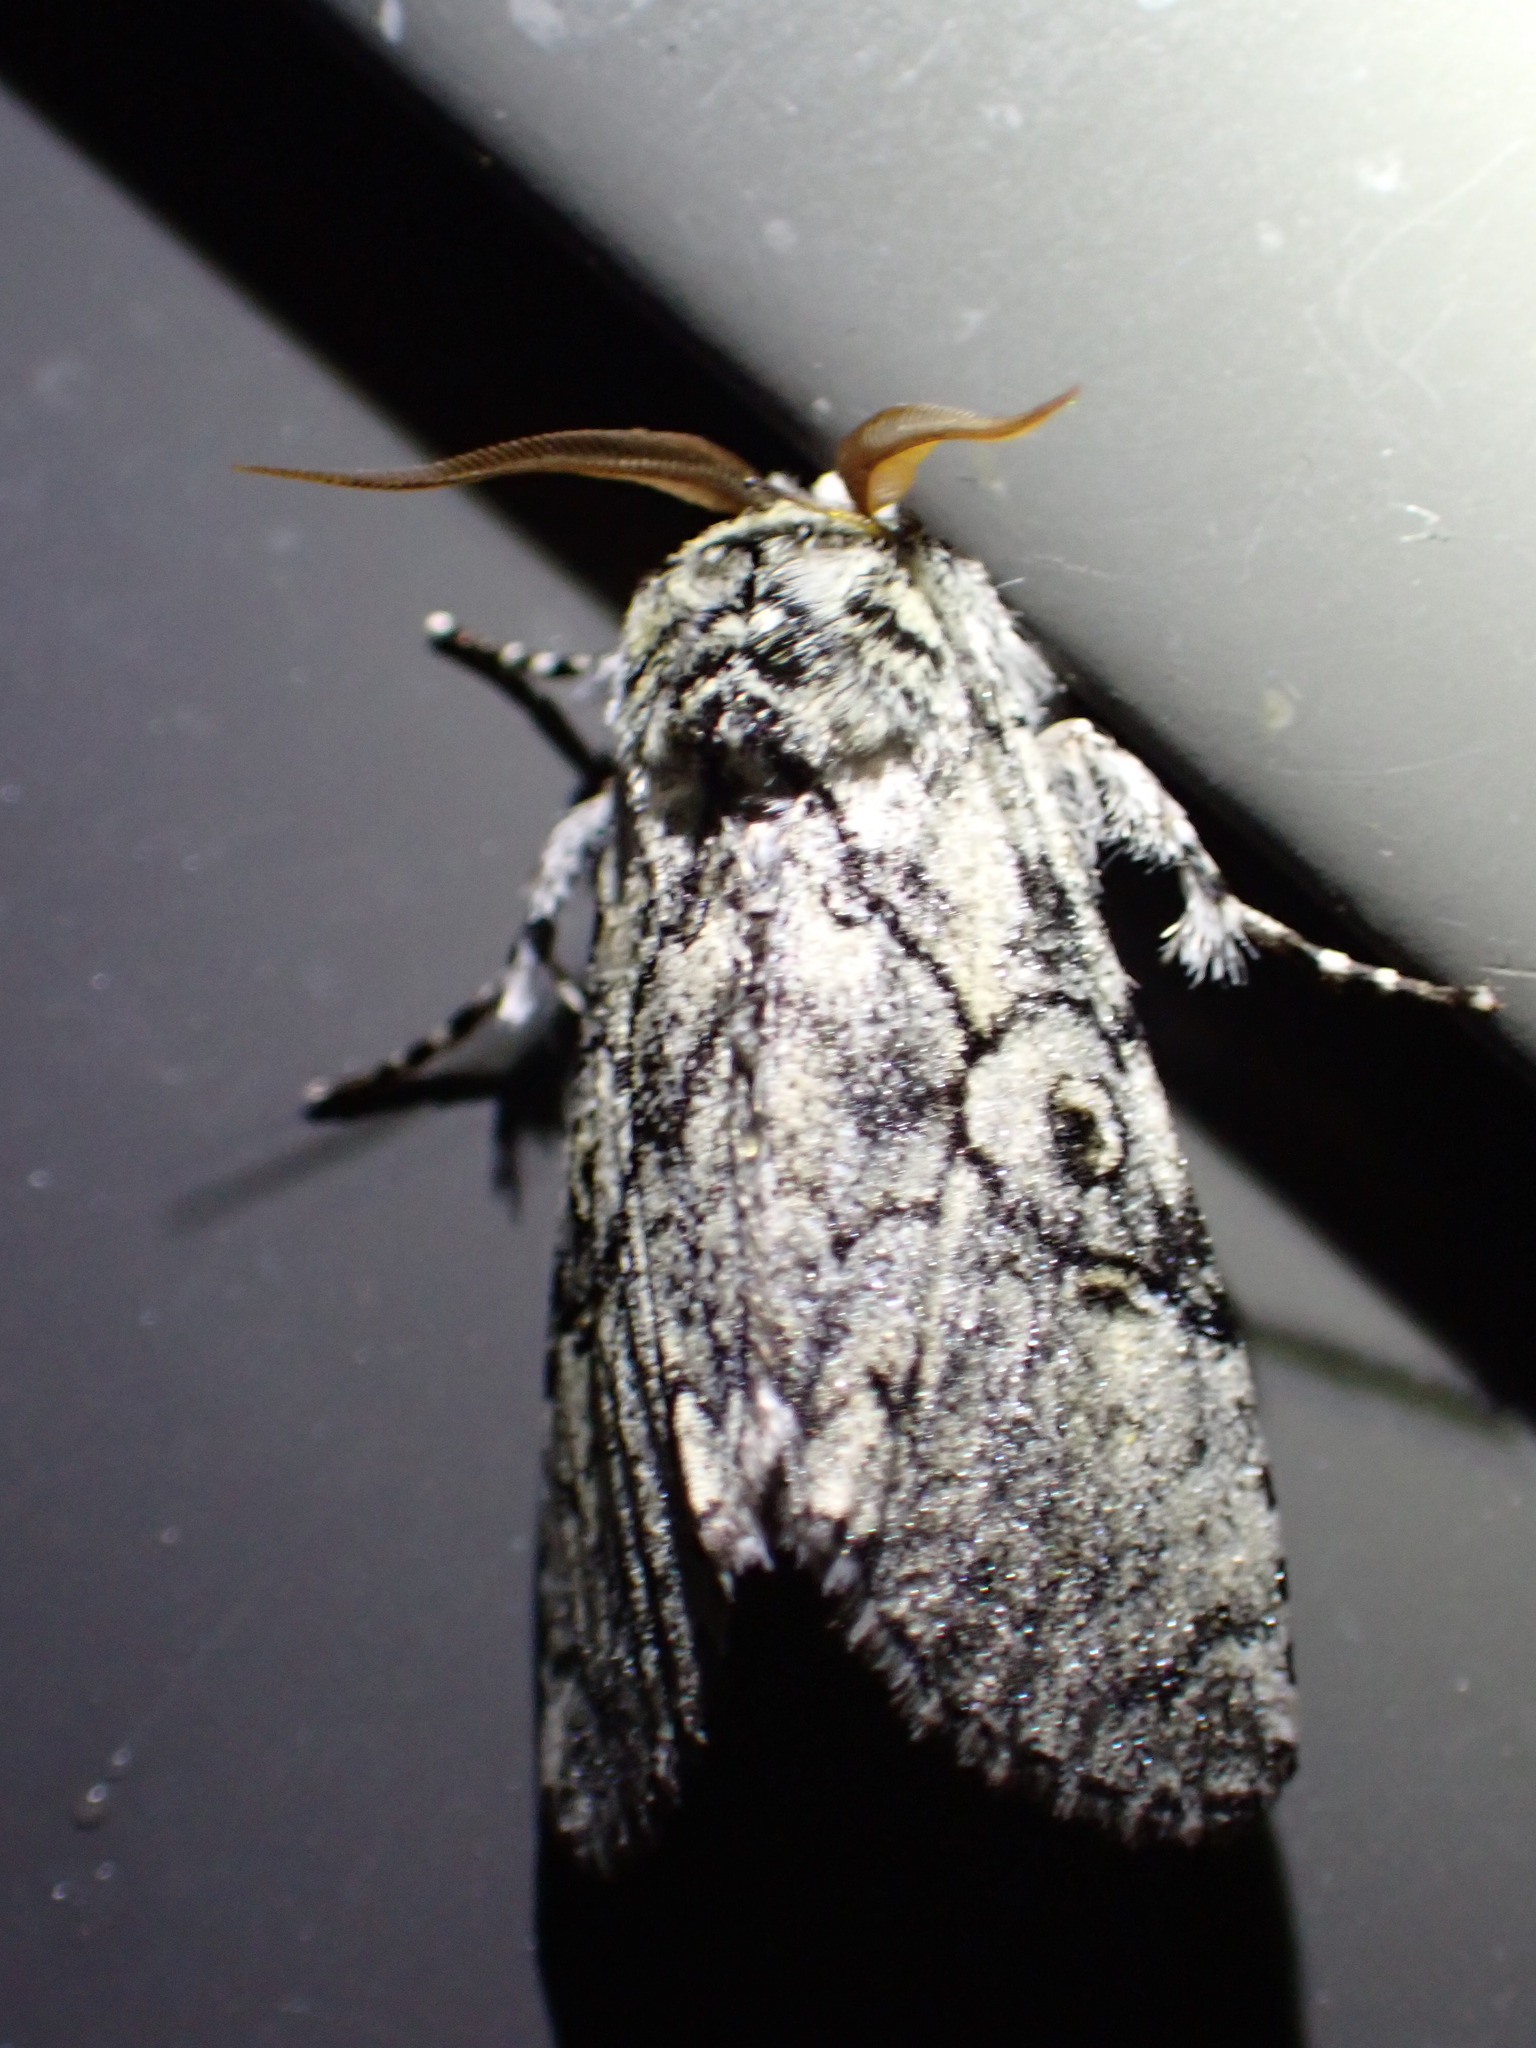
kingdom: Animalia
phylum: Arthropoda
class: Insecta
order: Lepidoptera
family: Noctuidae
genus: Charadra
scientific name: Charadra deridens
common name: Marbled tuffet
